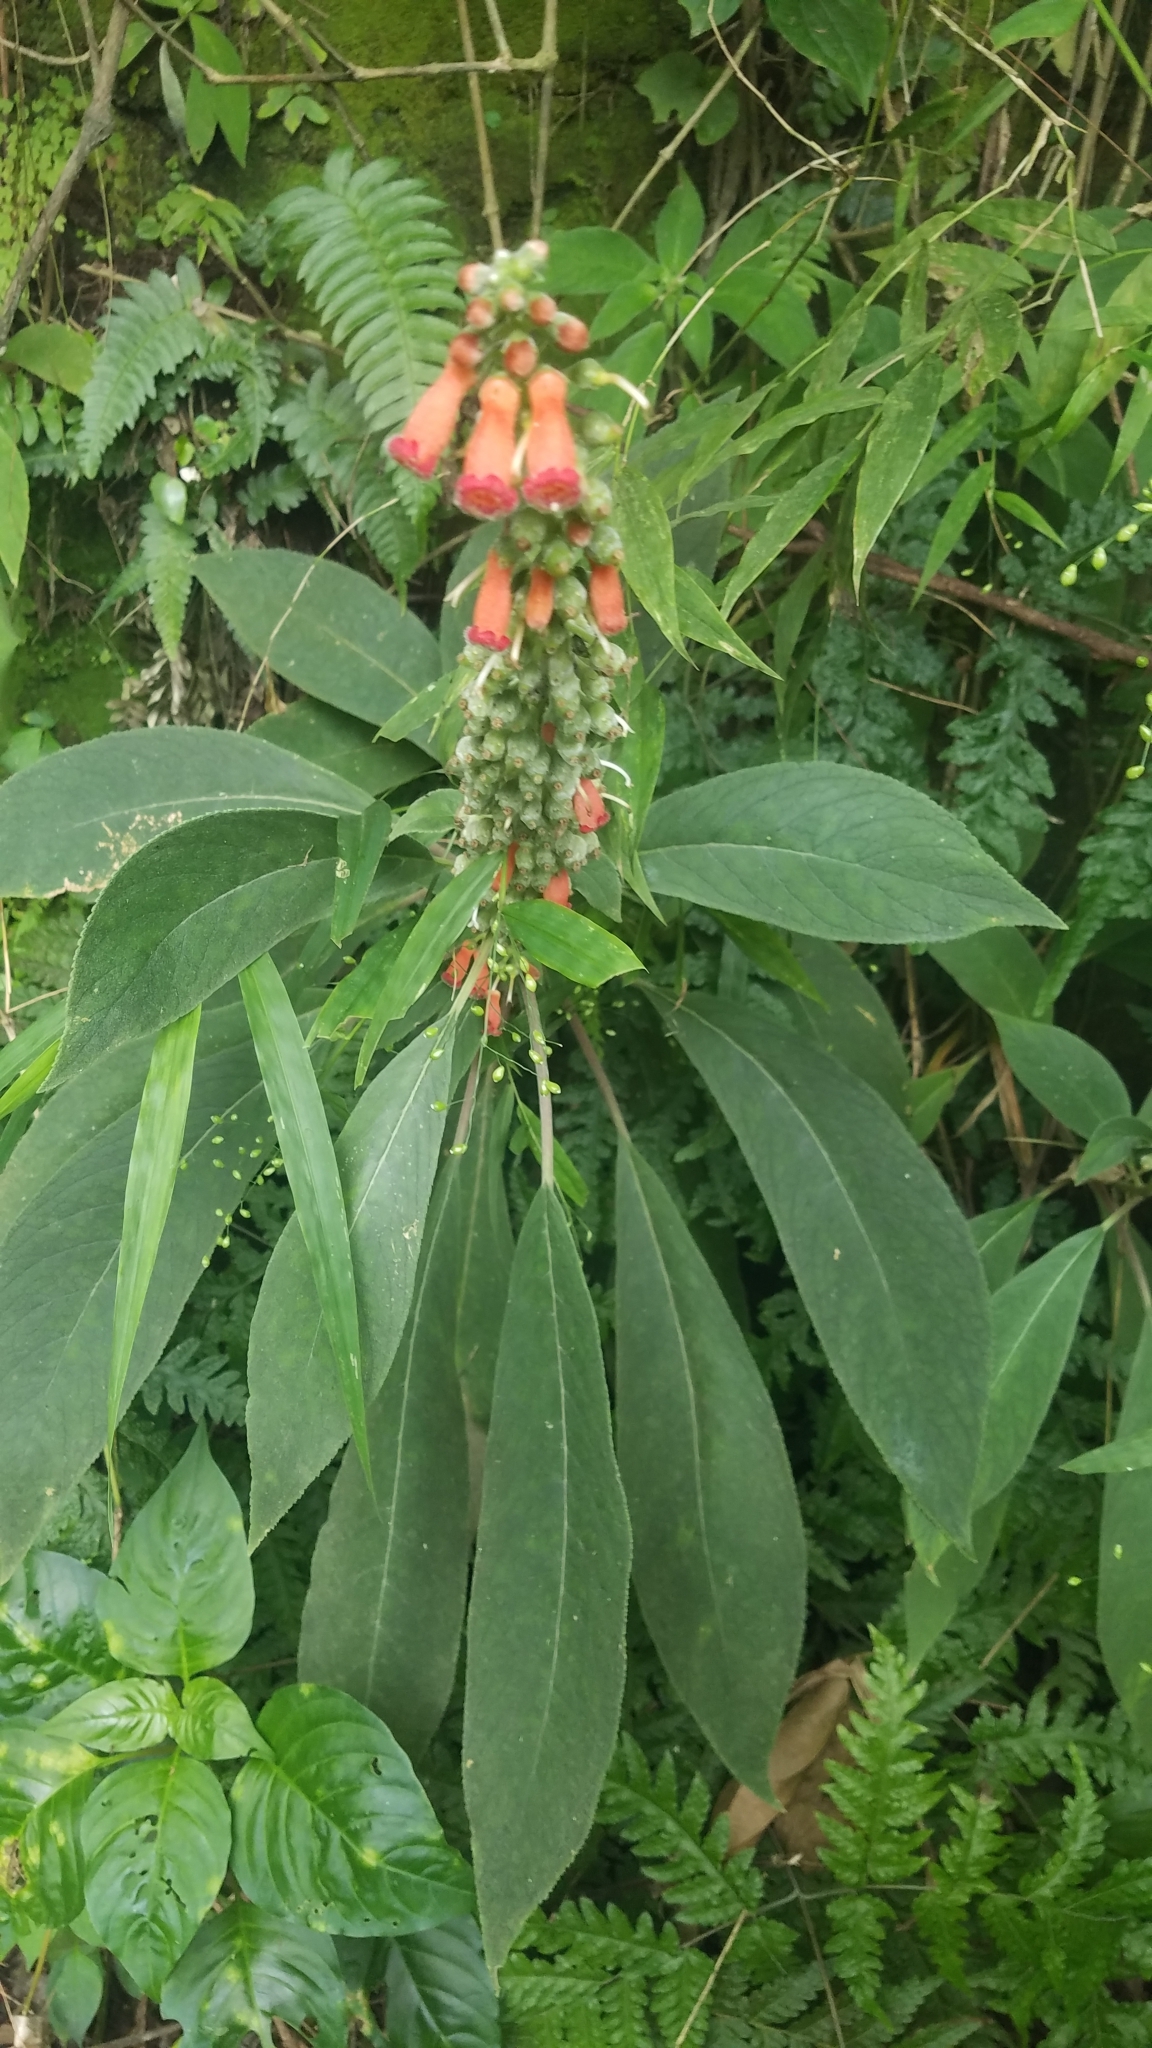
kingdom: Plantae
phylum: Tracheophyta
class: Magnoliopsida
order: Lamiales
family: Gesneriaceae
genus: Kohleria
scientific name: Kohleria spicata
